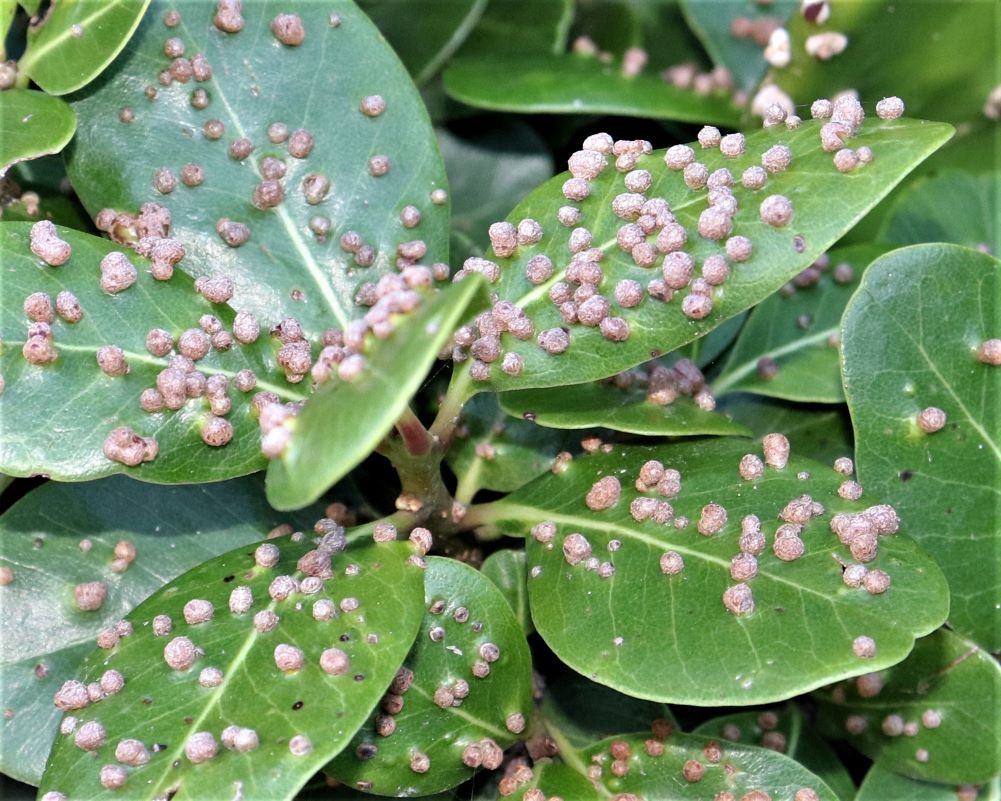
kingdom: Animalia
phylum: Arthropoda
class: Arachnida
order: Trombidiformes
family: Eriophyidae
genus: Eriophyes
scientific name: Eriophyes
